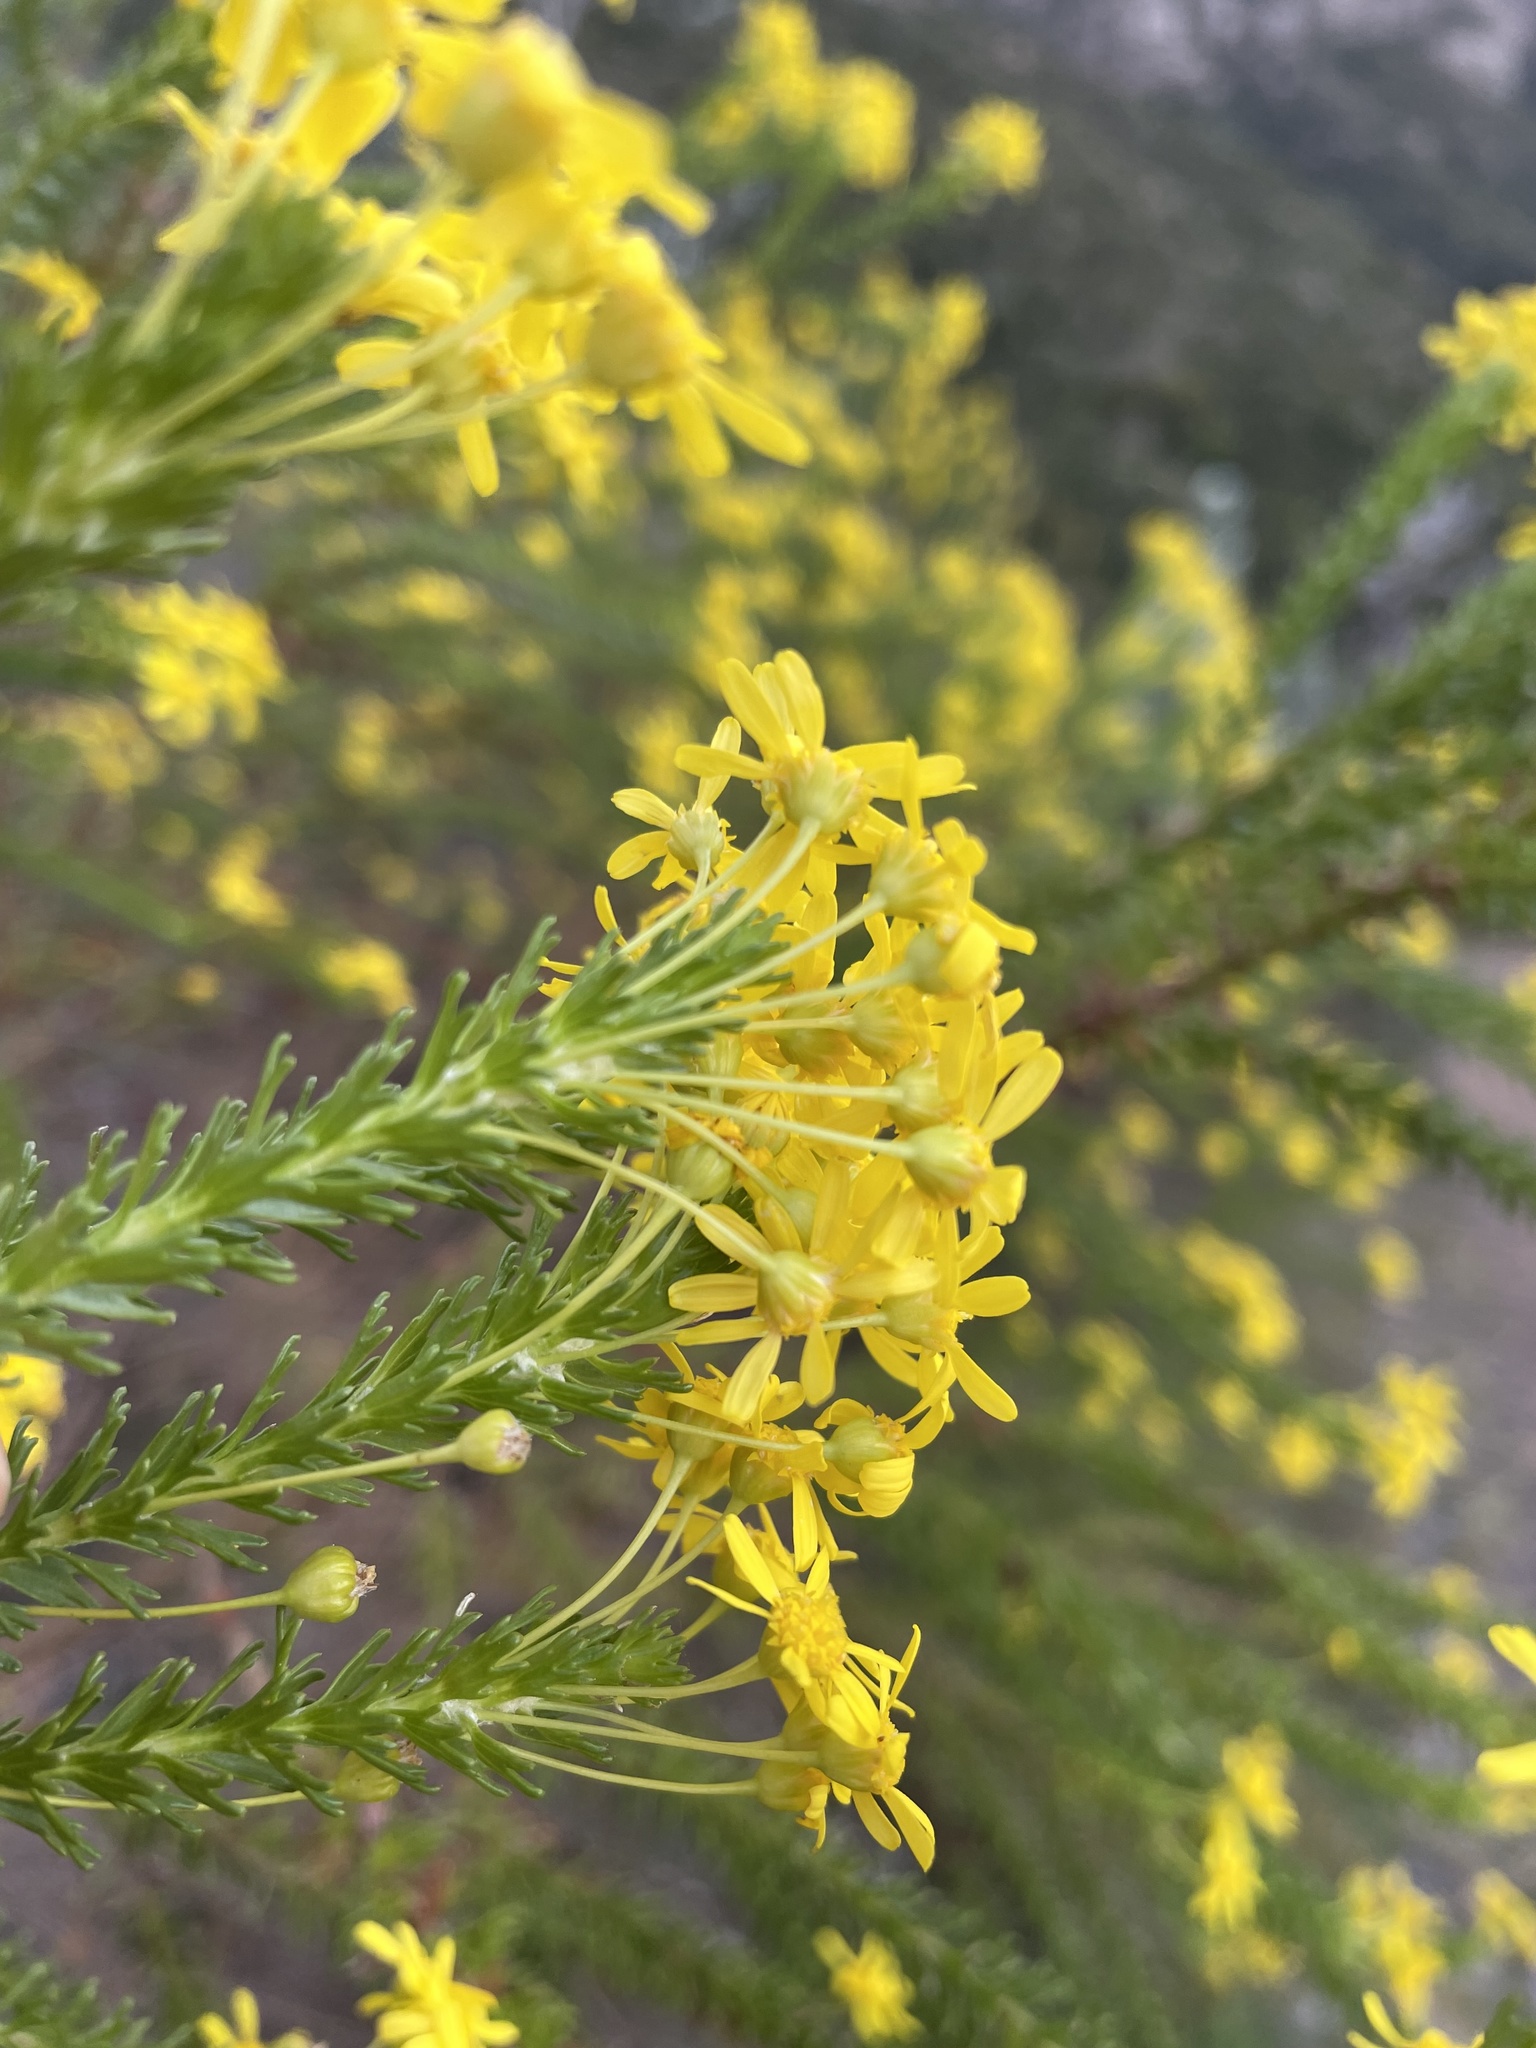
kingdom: Plantae
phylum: Tracheophyta
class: Magnoliopsida
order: Asterales
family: Asteraceae
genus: Euryops
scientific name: Euryops virgineus
